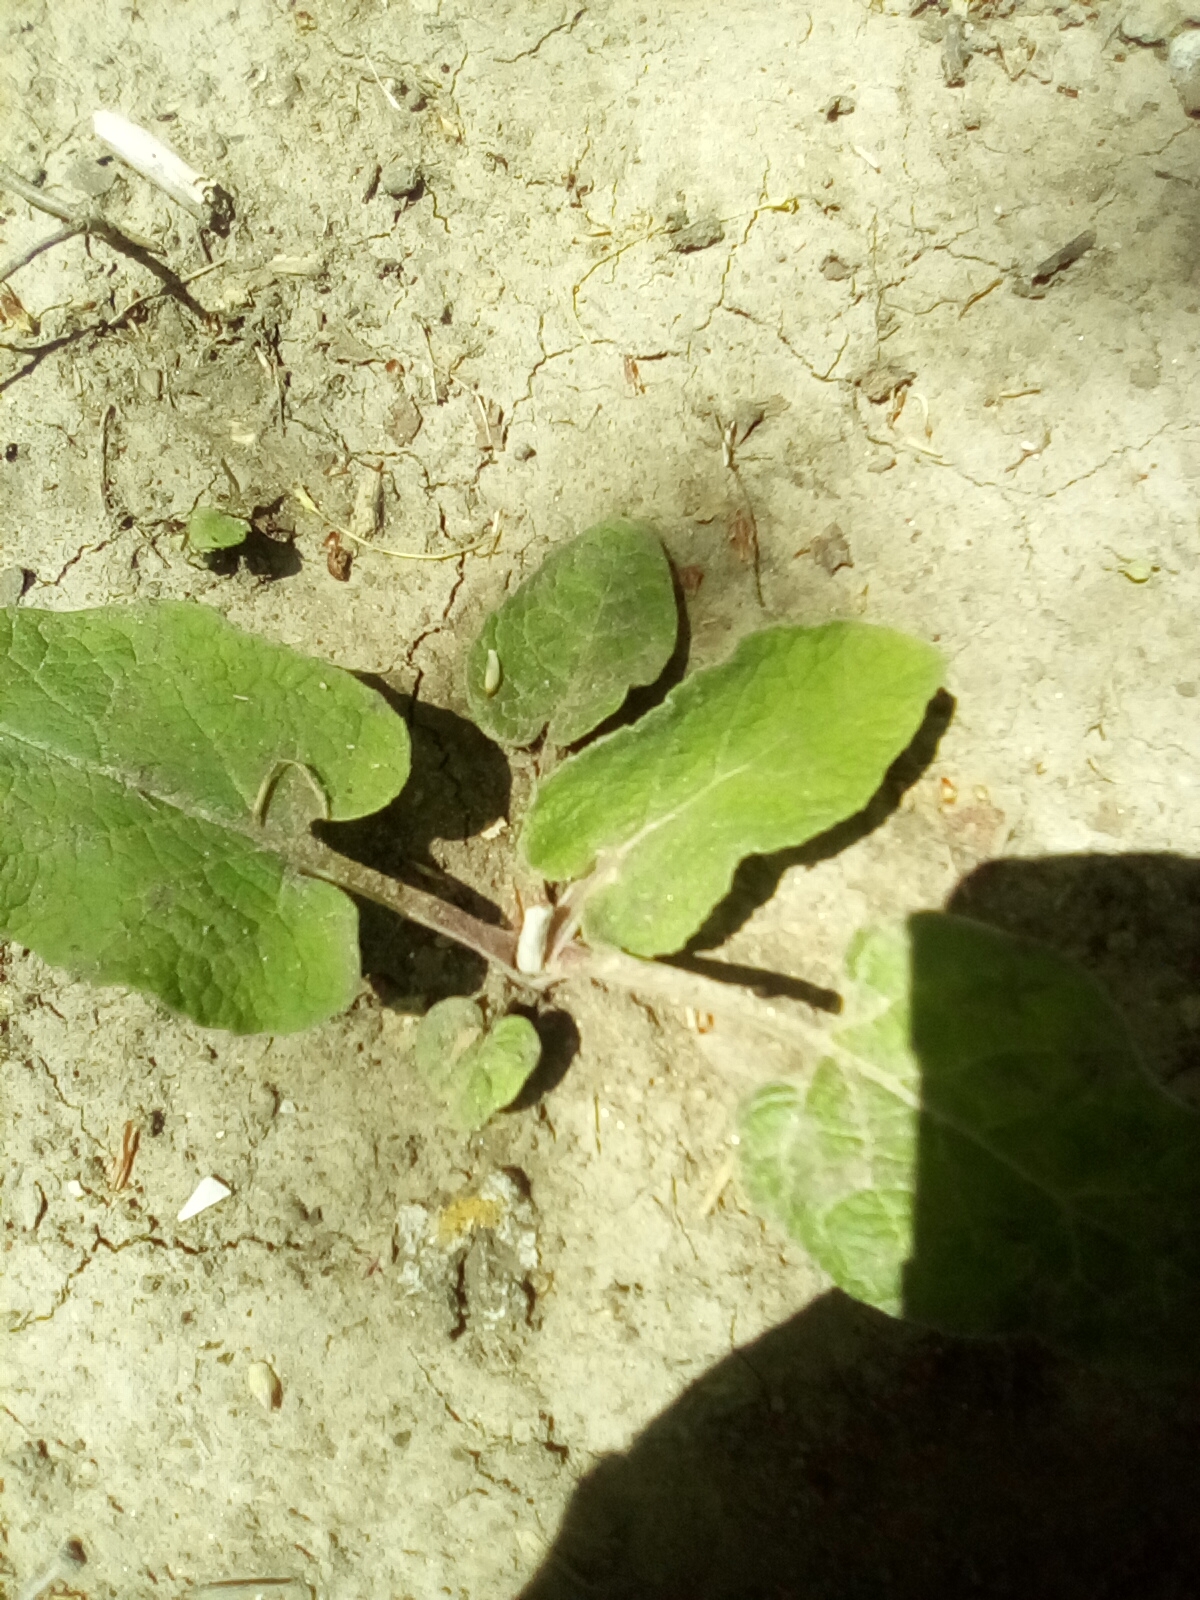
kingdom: Plantae
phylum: Tracheophyta
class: Magnoliopsida
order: Asterales
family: Asteraceae
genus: Arctium
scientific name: Arctium
